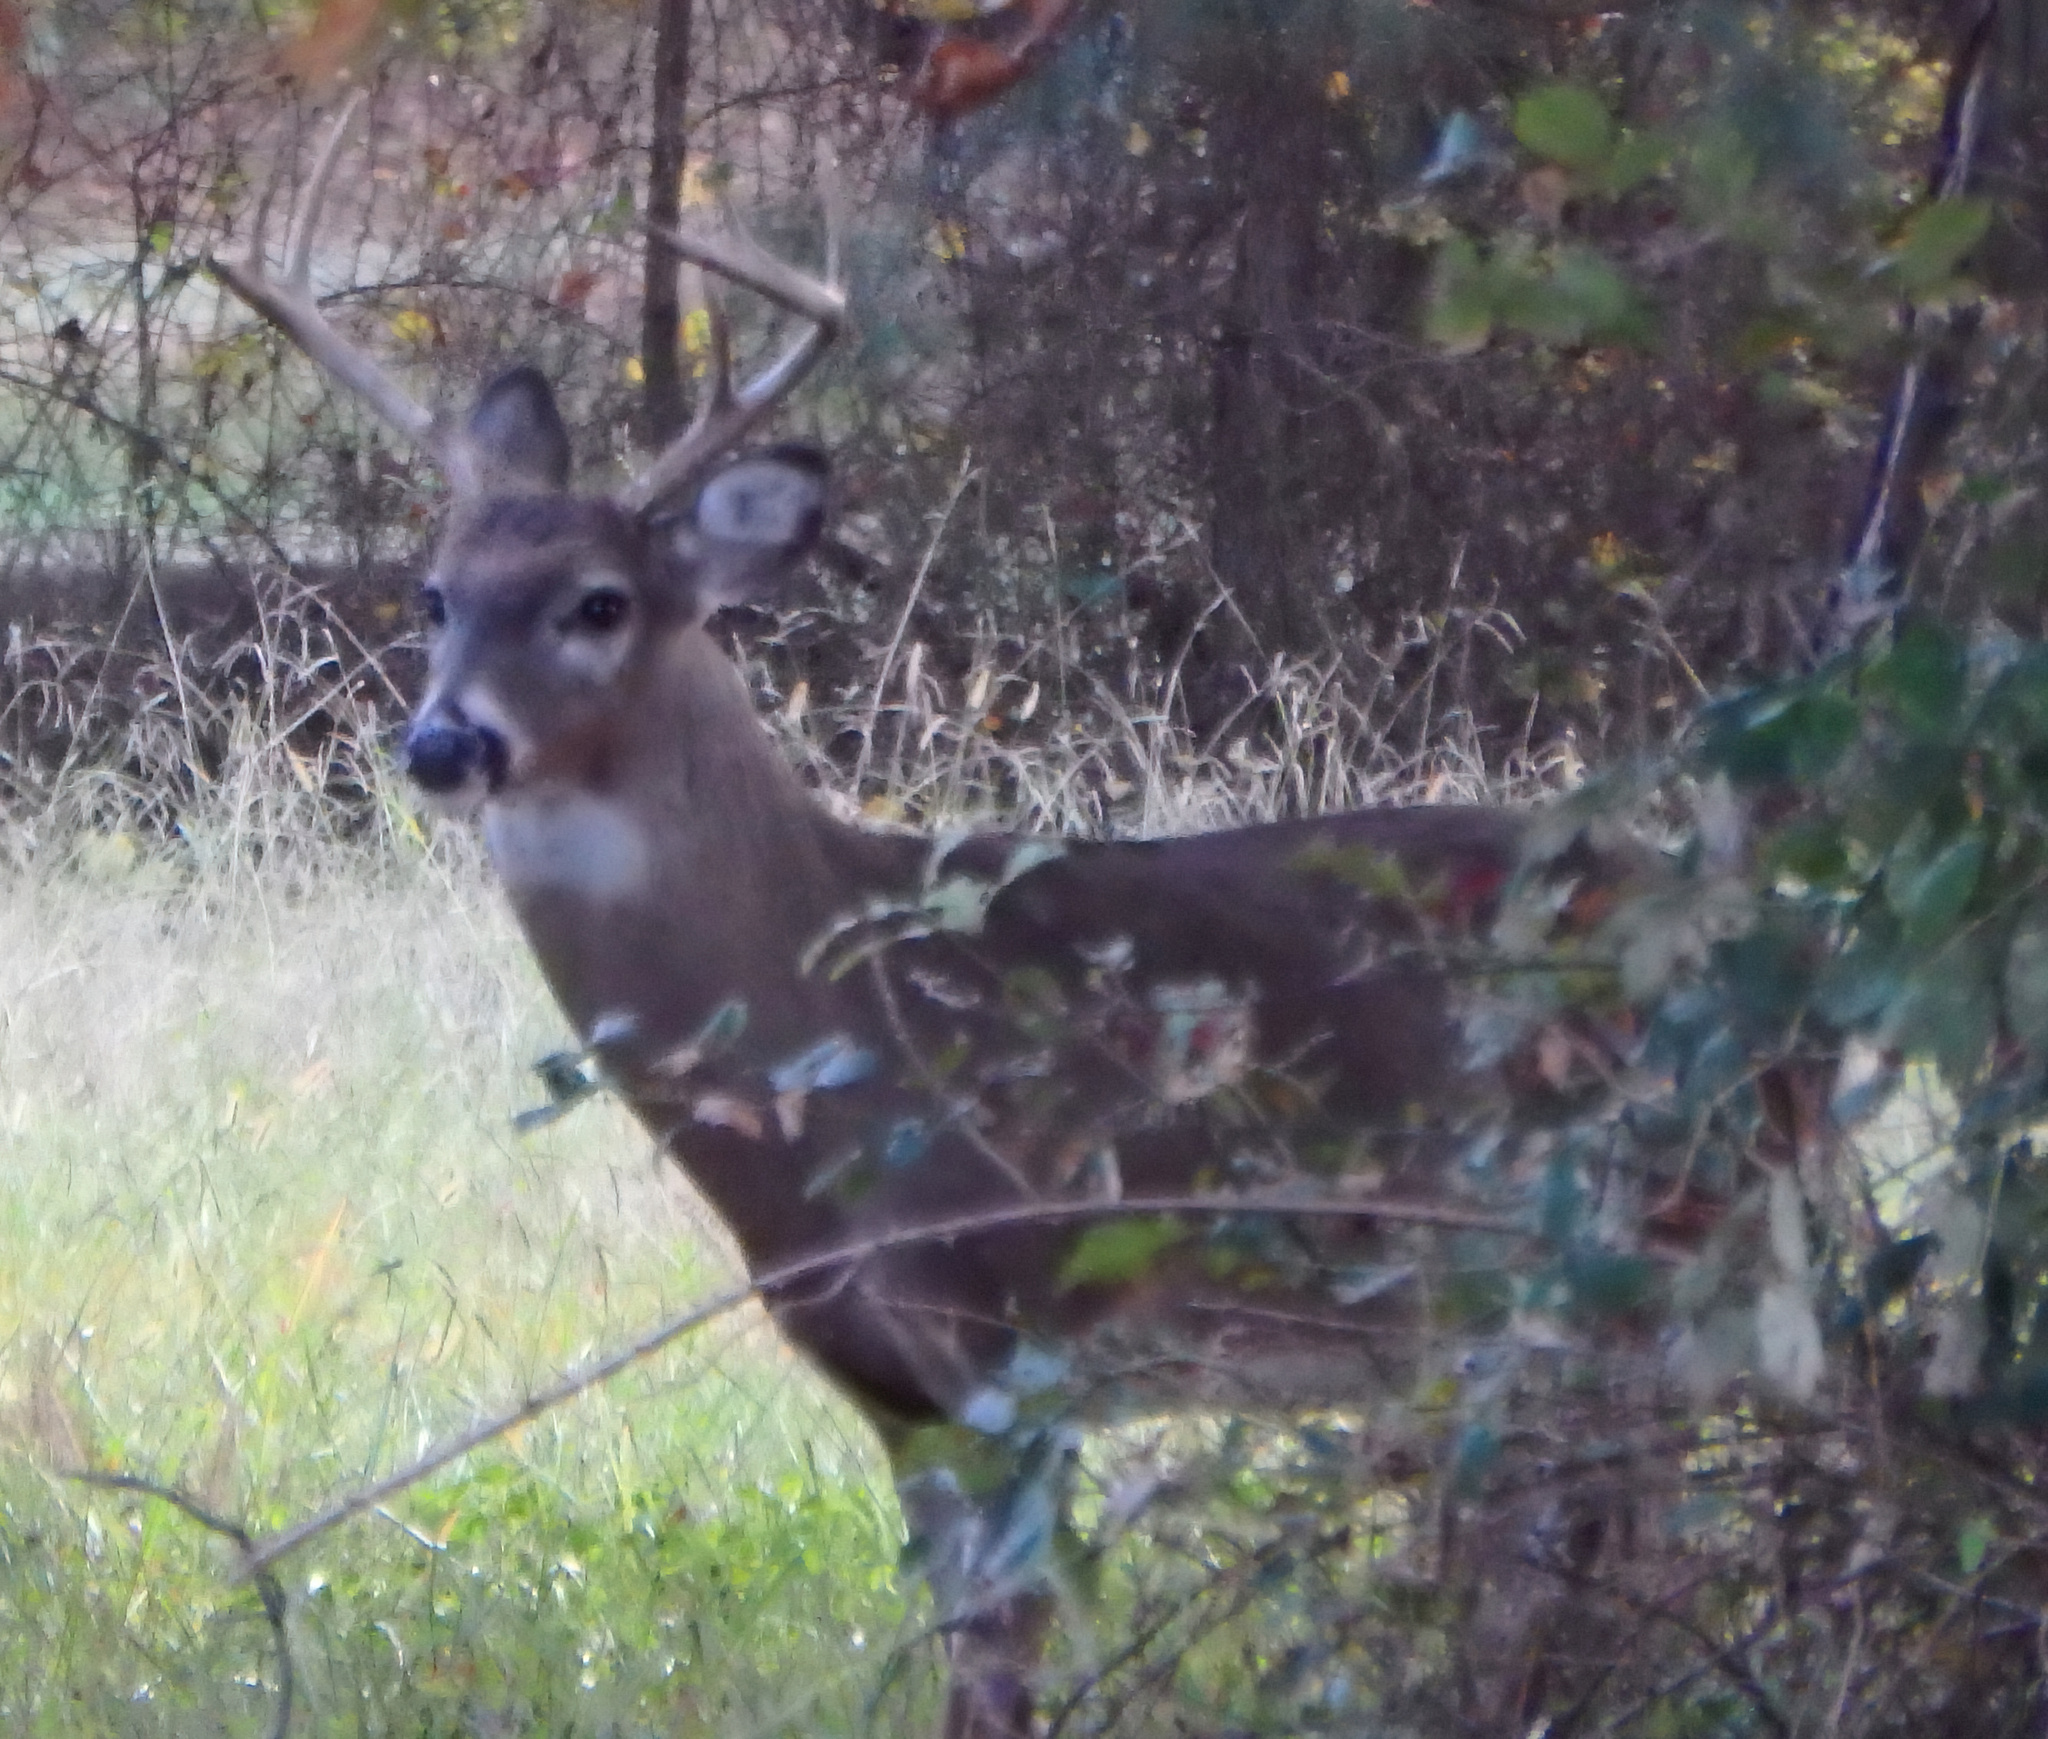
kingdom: Animalia
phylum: Chordata
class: Mammalia
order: Artiodactyla
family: Cervidae
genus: Odocoileus
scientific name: Odocoileus virginianus
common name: White-tailed deer
